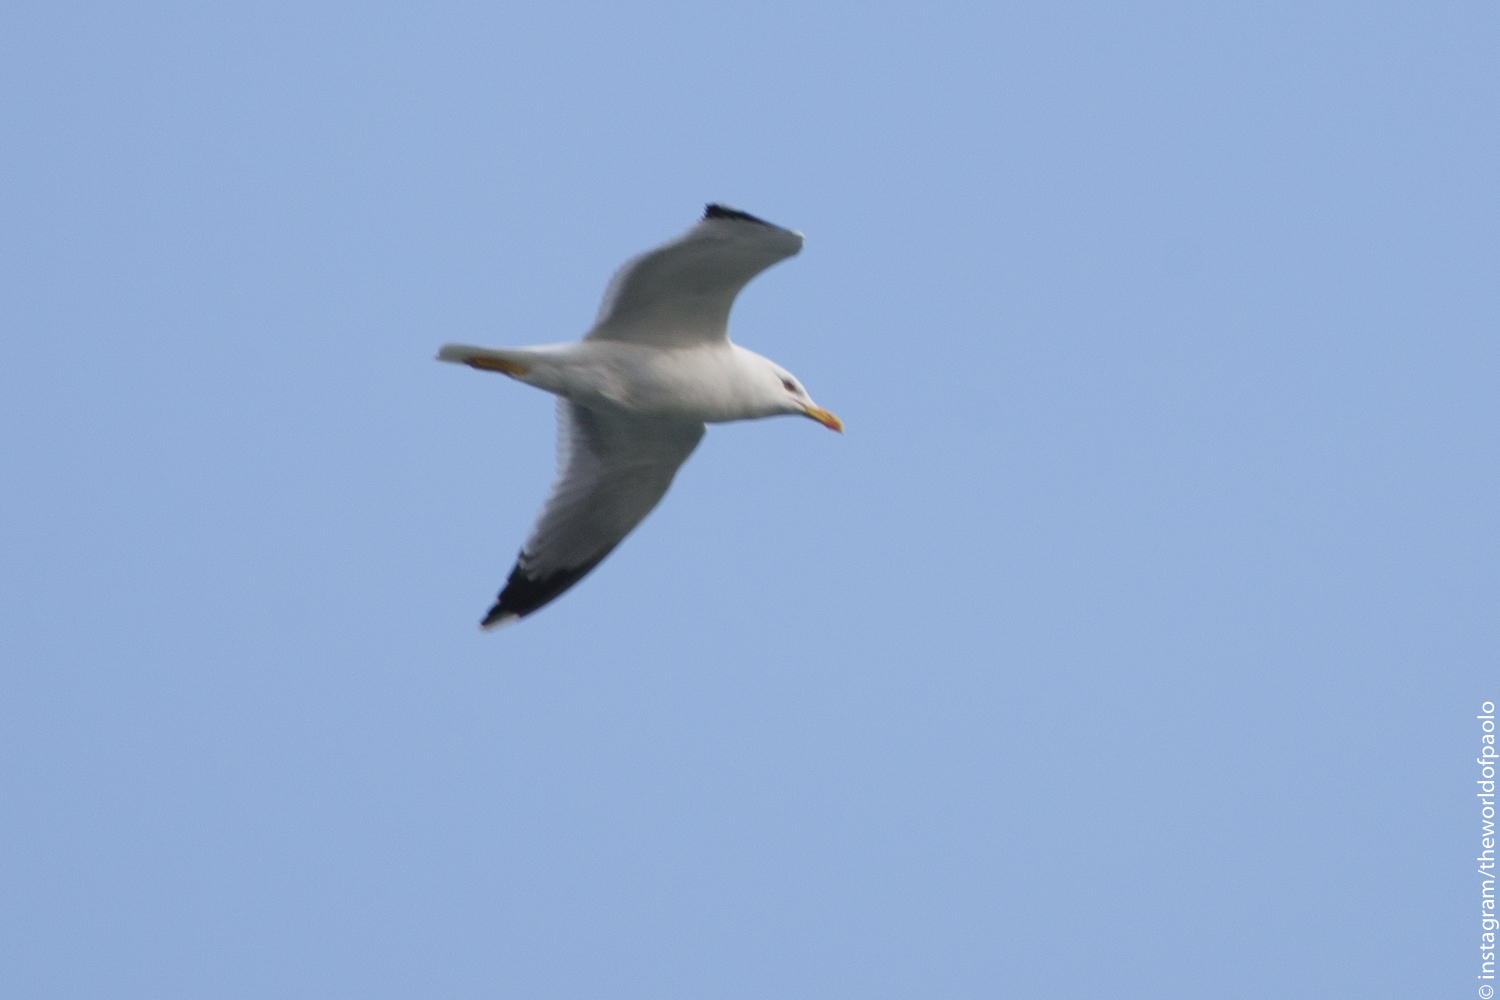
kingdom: Animalia
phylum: Chordata
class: Aves
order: Charadriiformes
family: Laridae
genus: Larus
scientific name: Larus michahellis
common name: Yellow-legged gull
